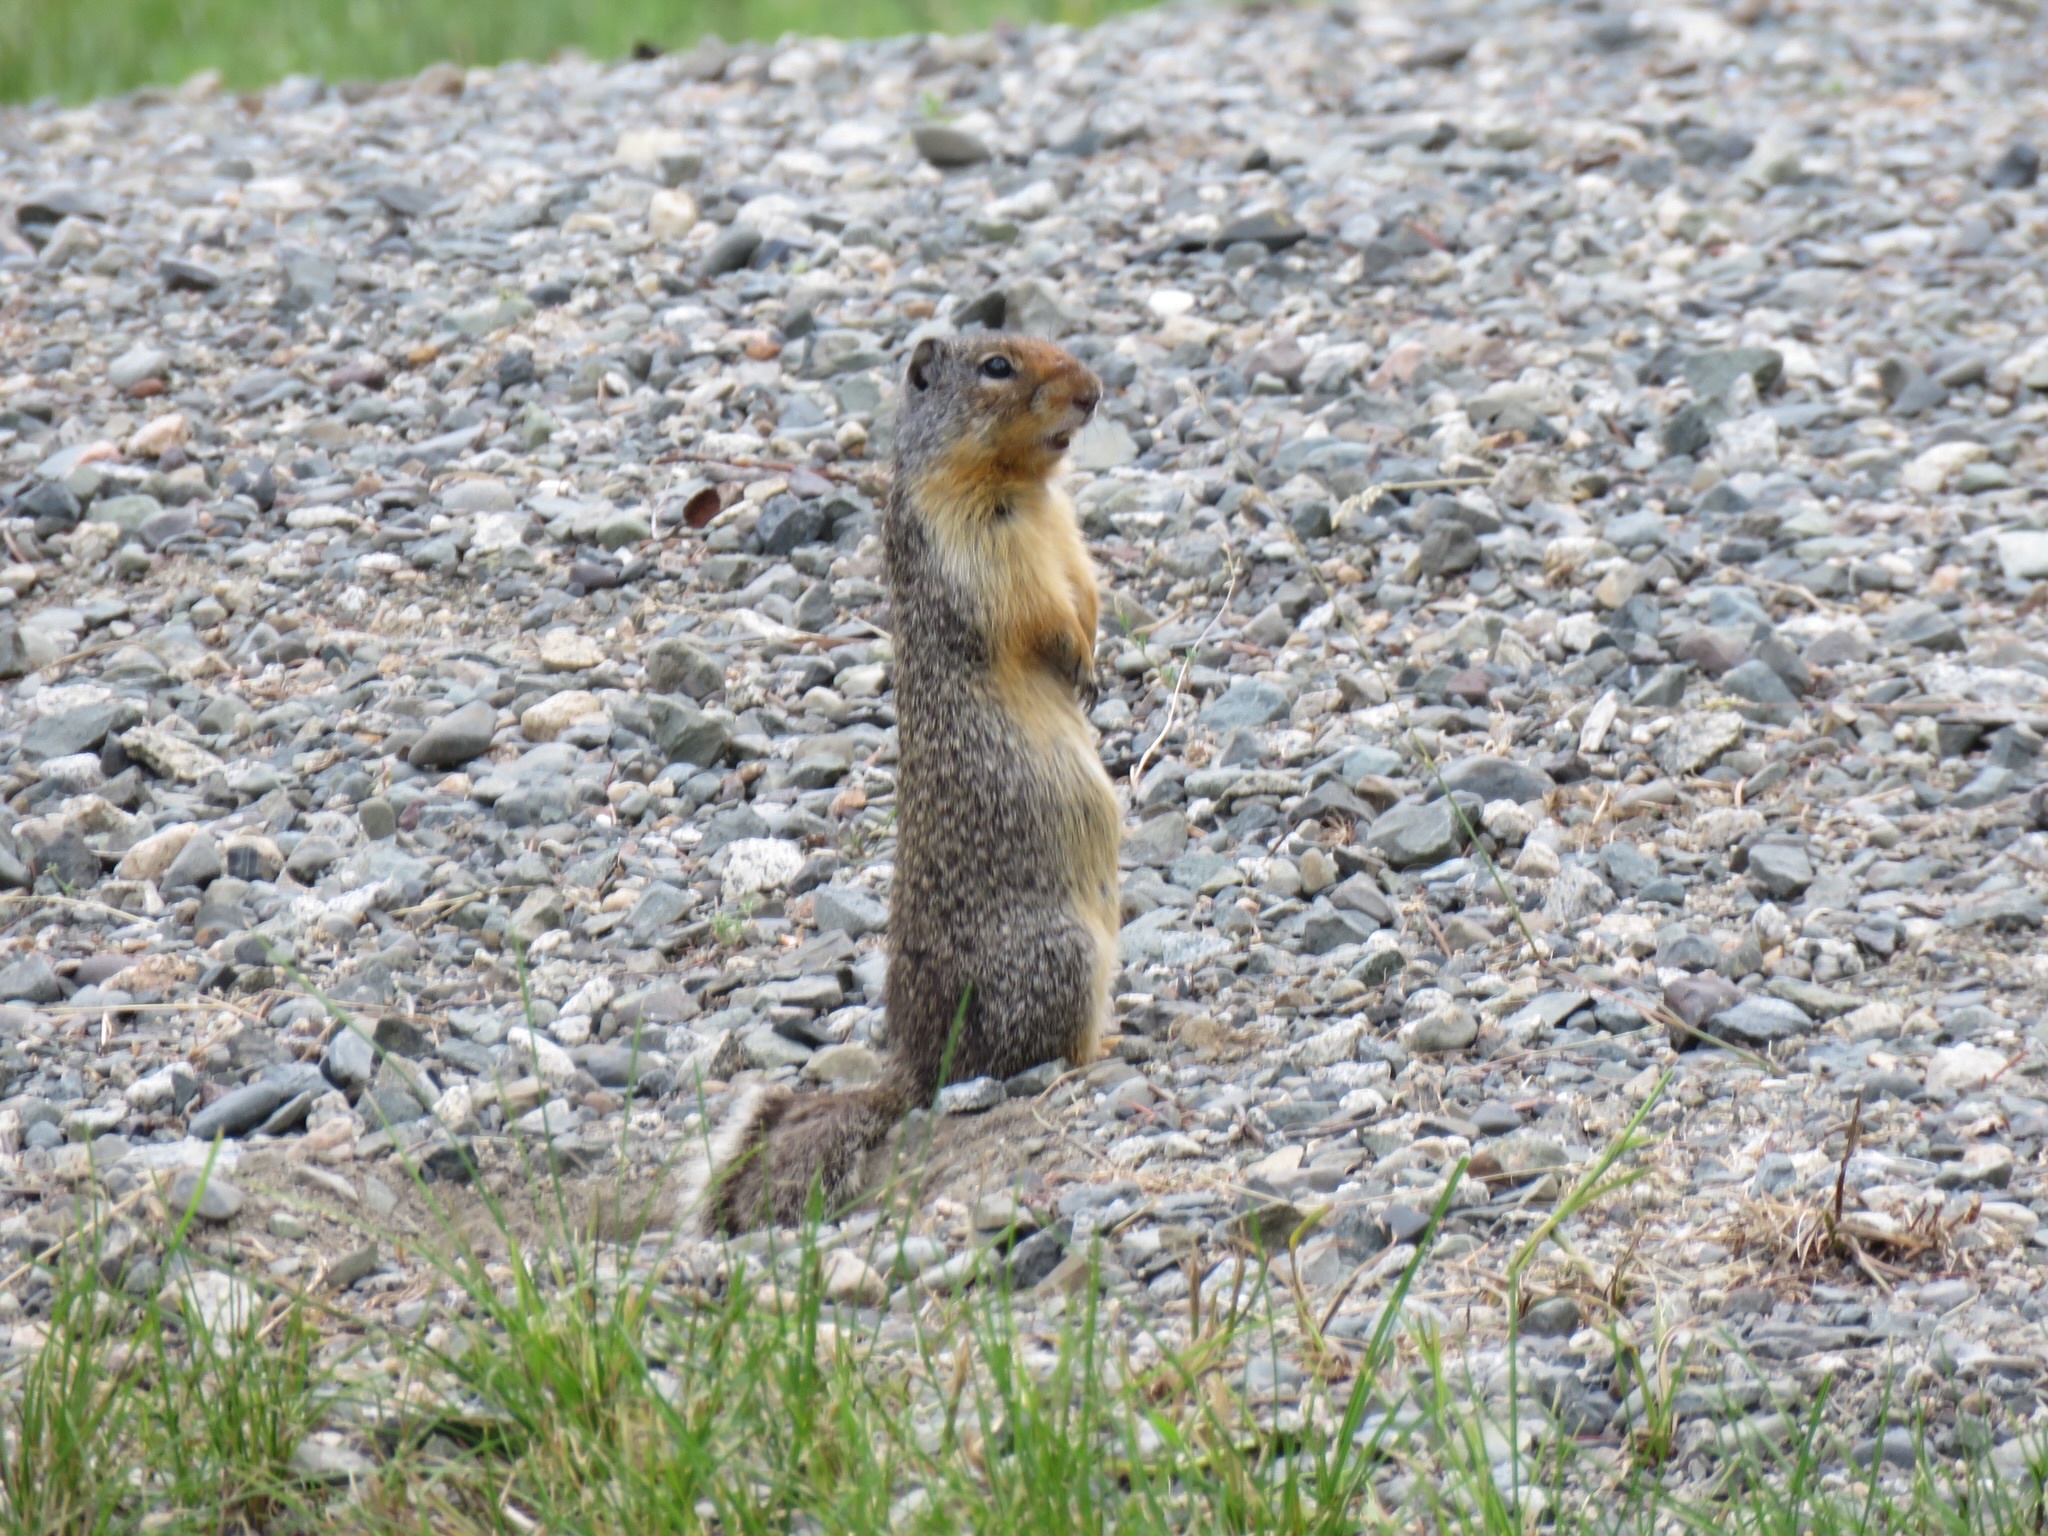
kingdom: Animalia
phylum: Chordata
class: Mammalia
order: Rodentia
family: Sciuridae
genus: Urocitellus
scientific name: Urocitellus columbianus
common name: Columbian ground squirrel
